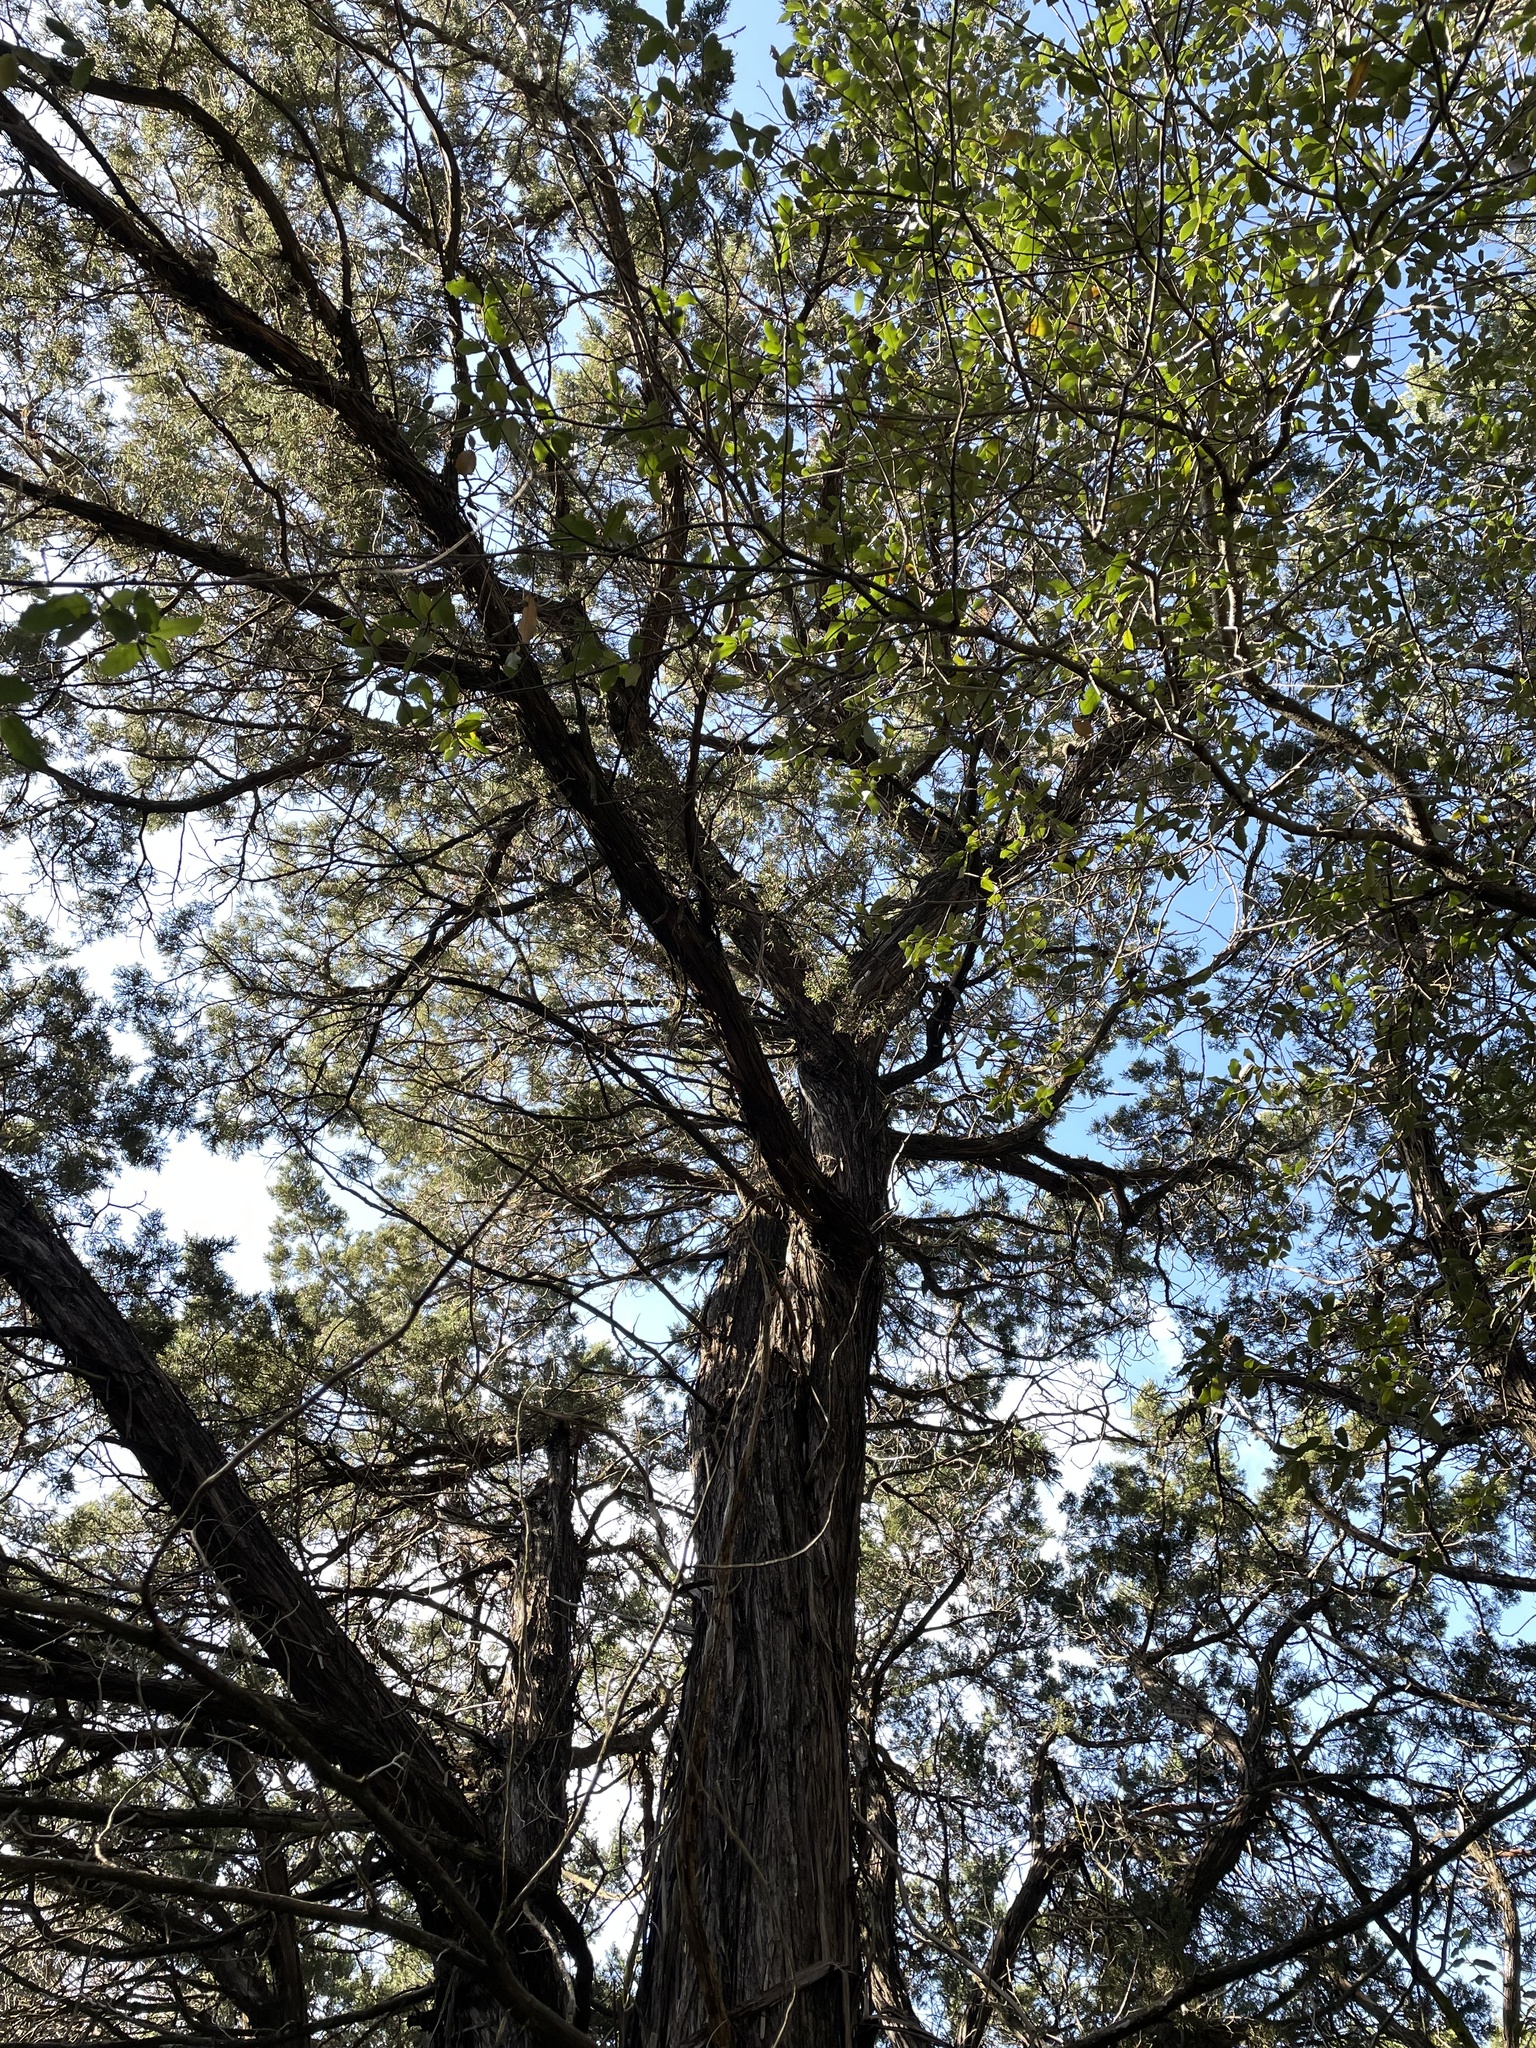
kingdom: Plantae
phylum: Tracheophyta
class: Pinopsida
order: Pinales
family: Cupressaceae
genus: Juniperus
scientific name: Juniperus ashei
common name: Mexican juniper
